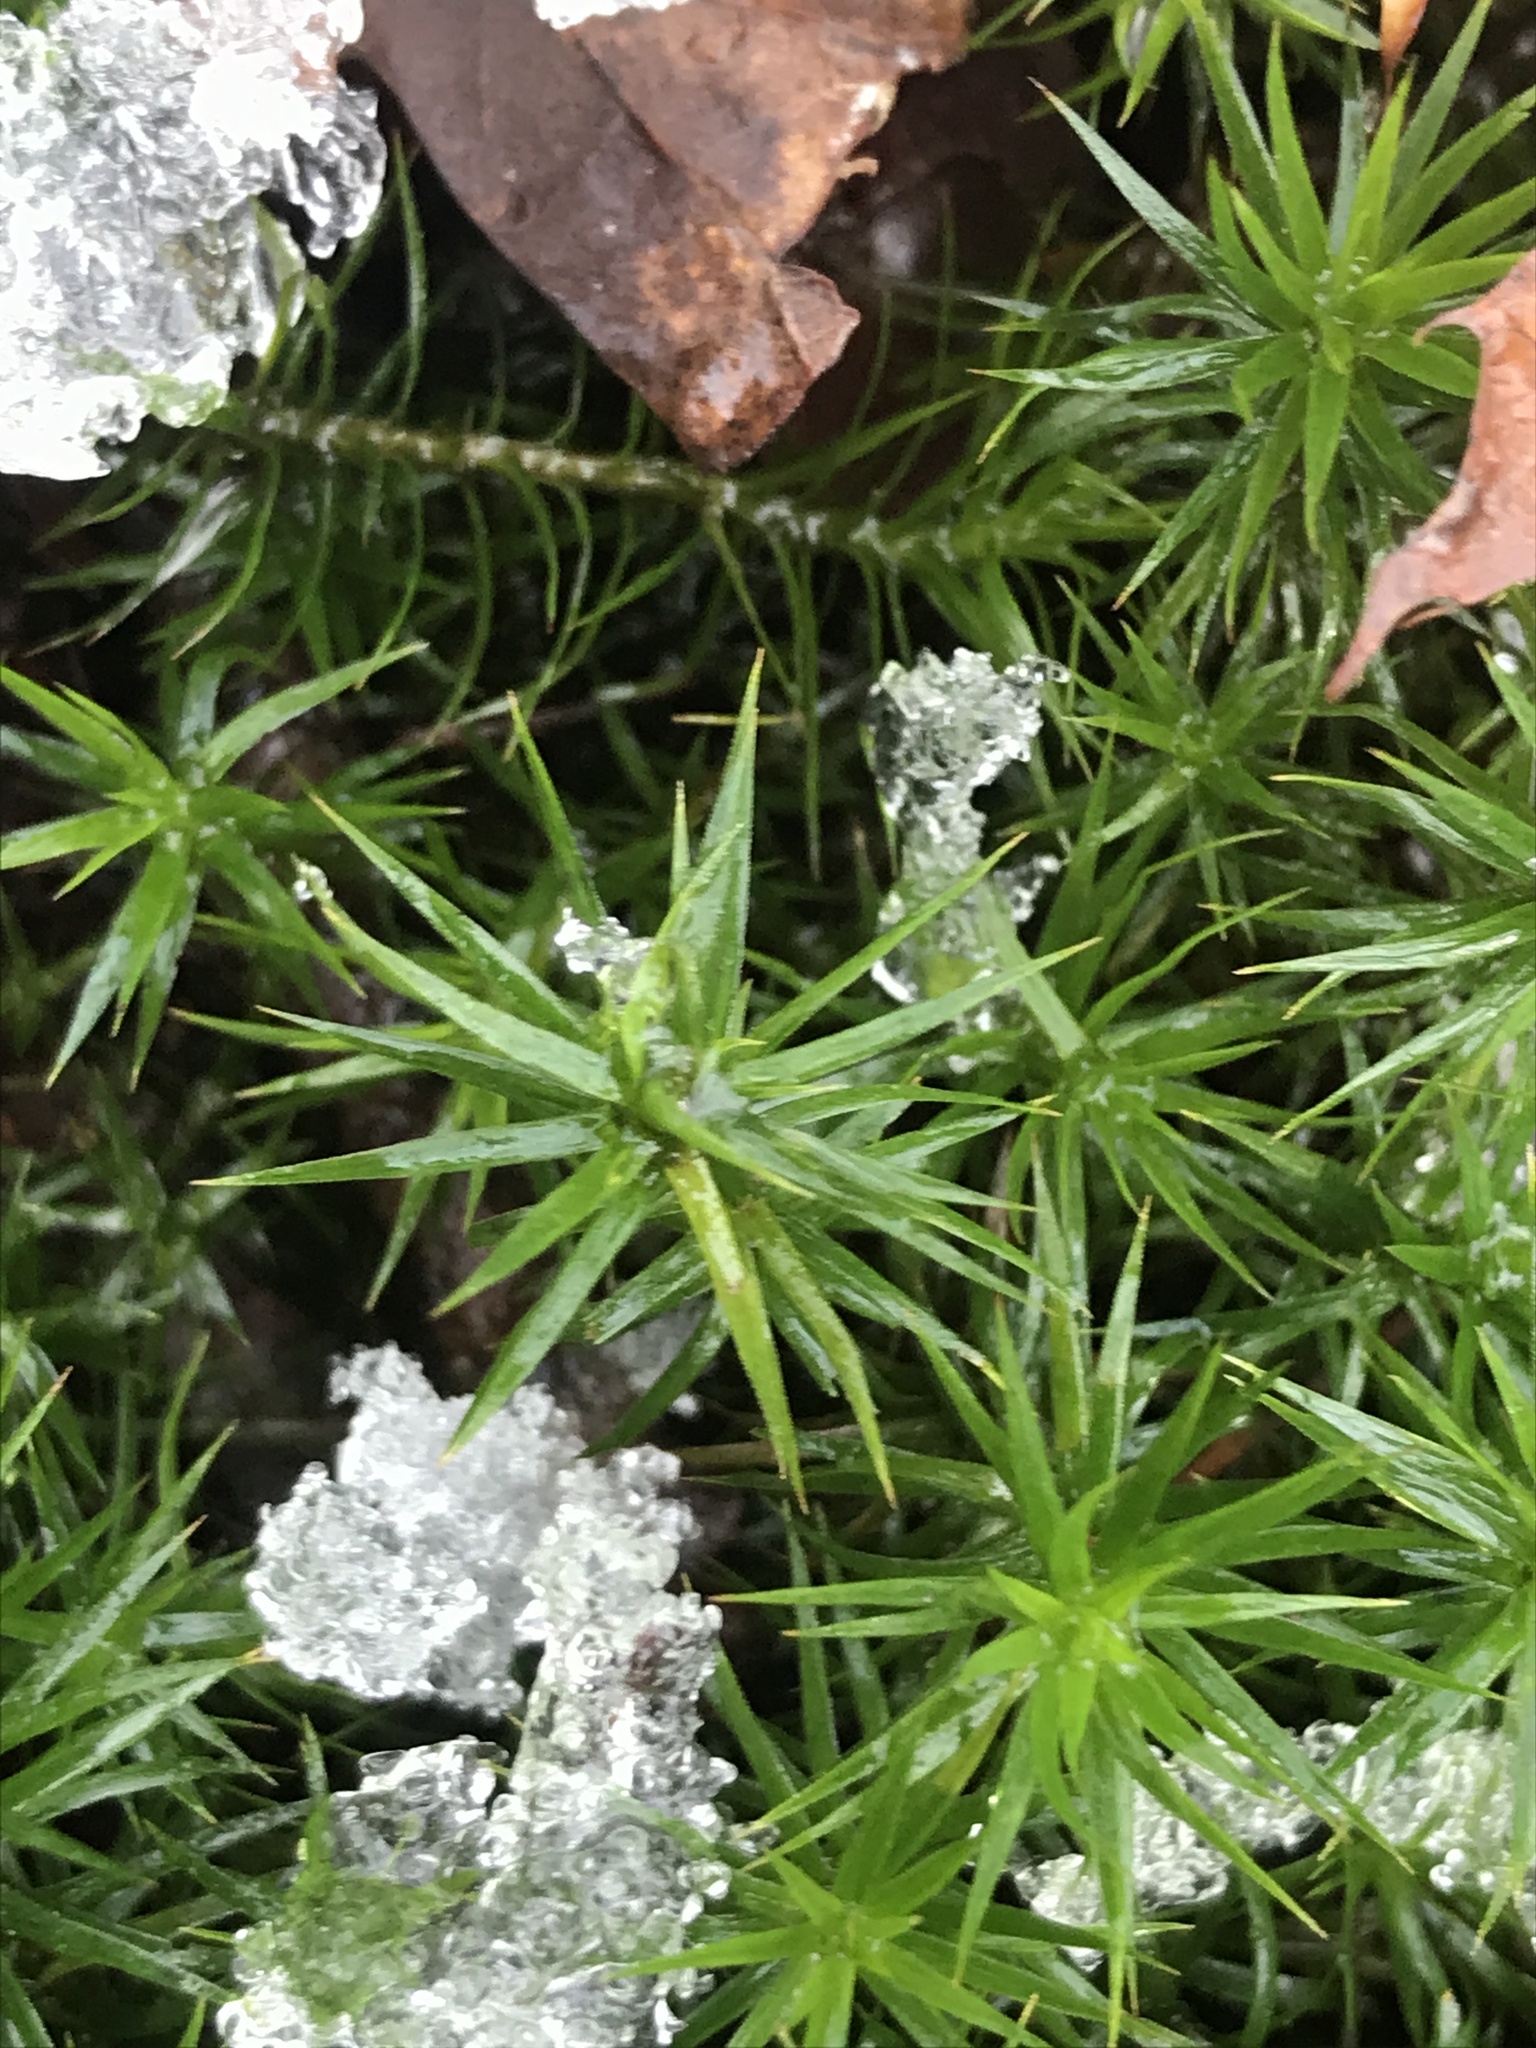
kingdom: Plantae
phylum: Bryophyta
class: Polytrichopsida
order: Polytrichales
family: Polytrichaceae
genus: Polytrichum
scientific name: Polytrichum formosum
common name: Bank haircap moss
